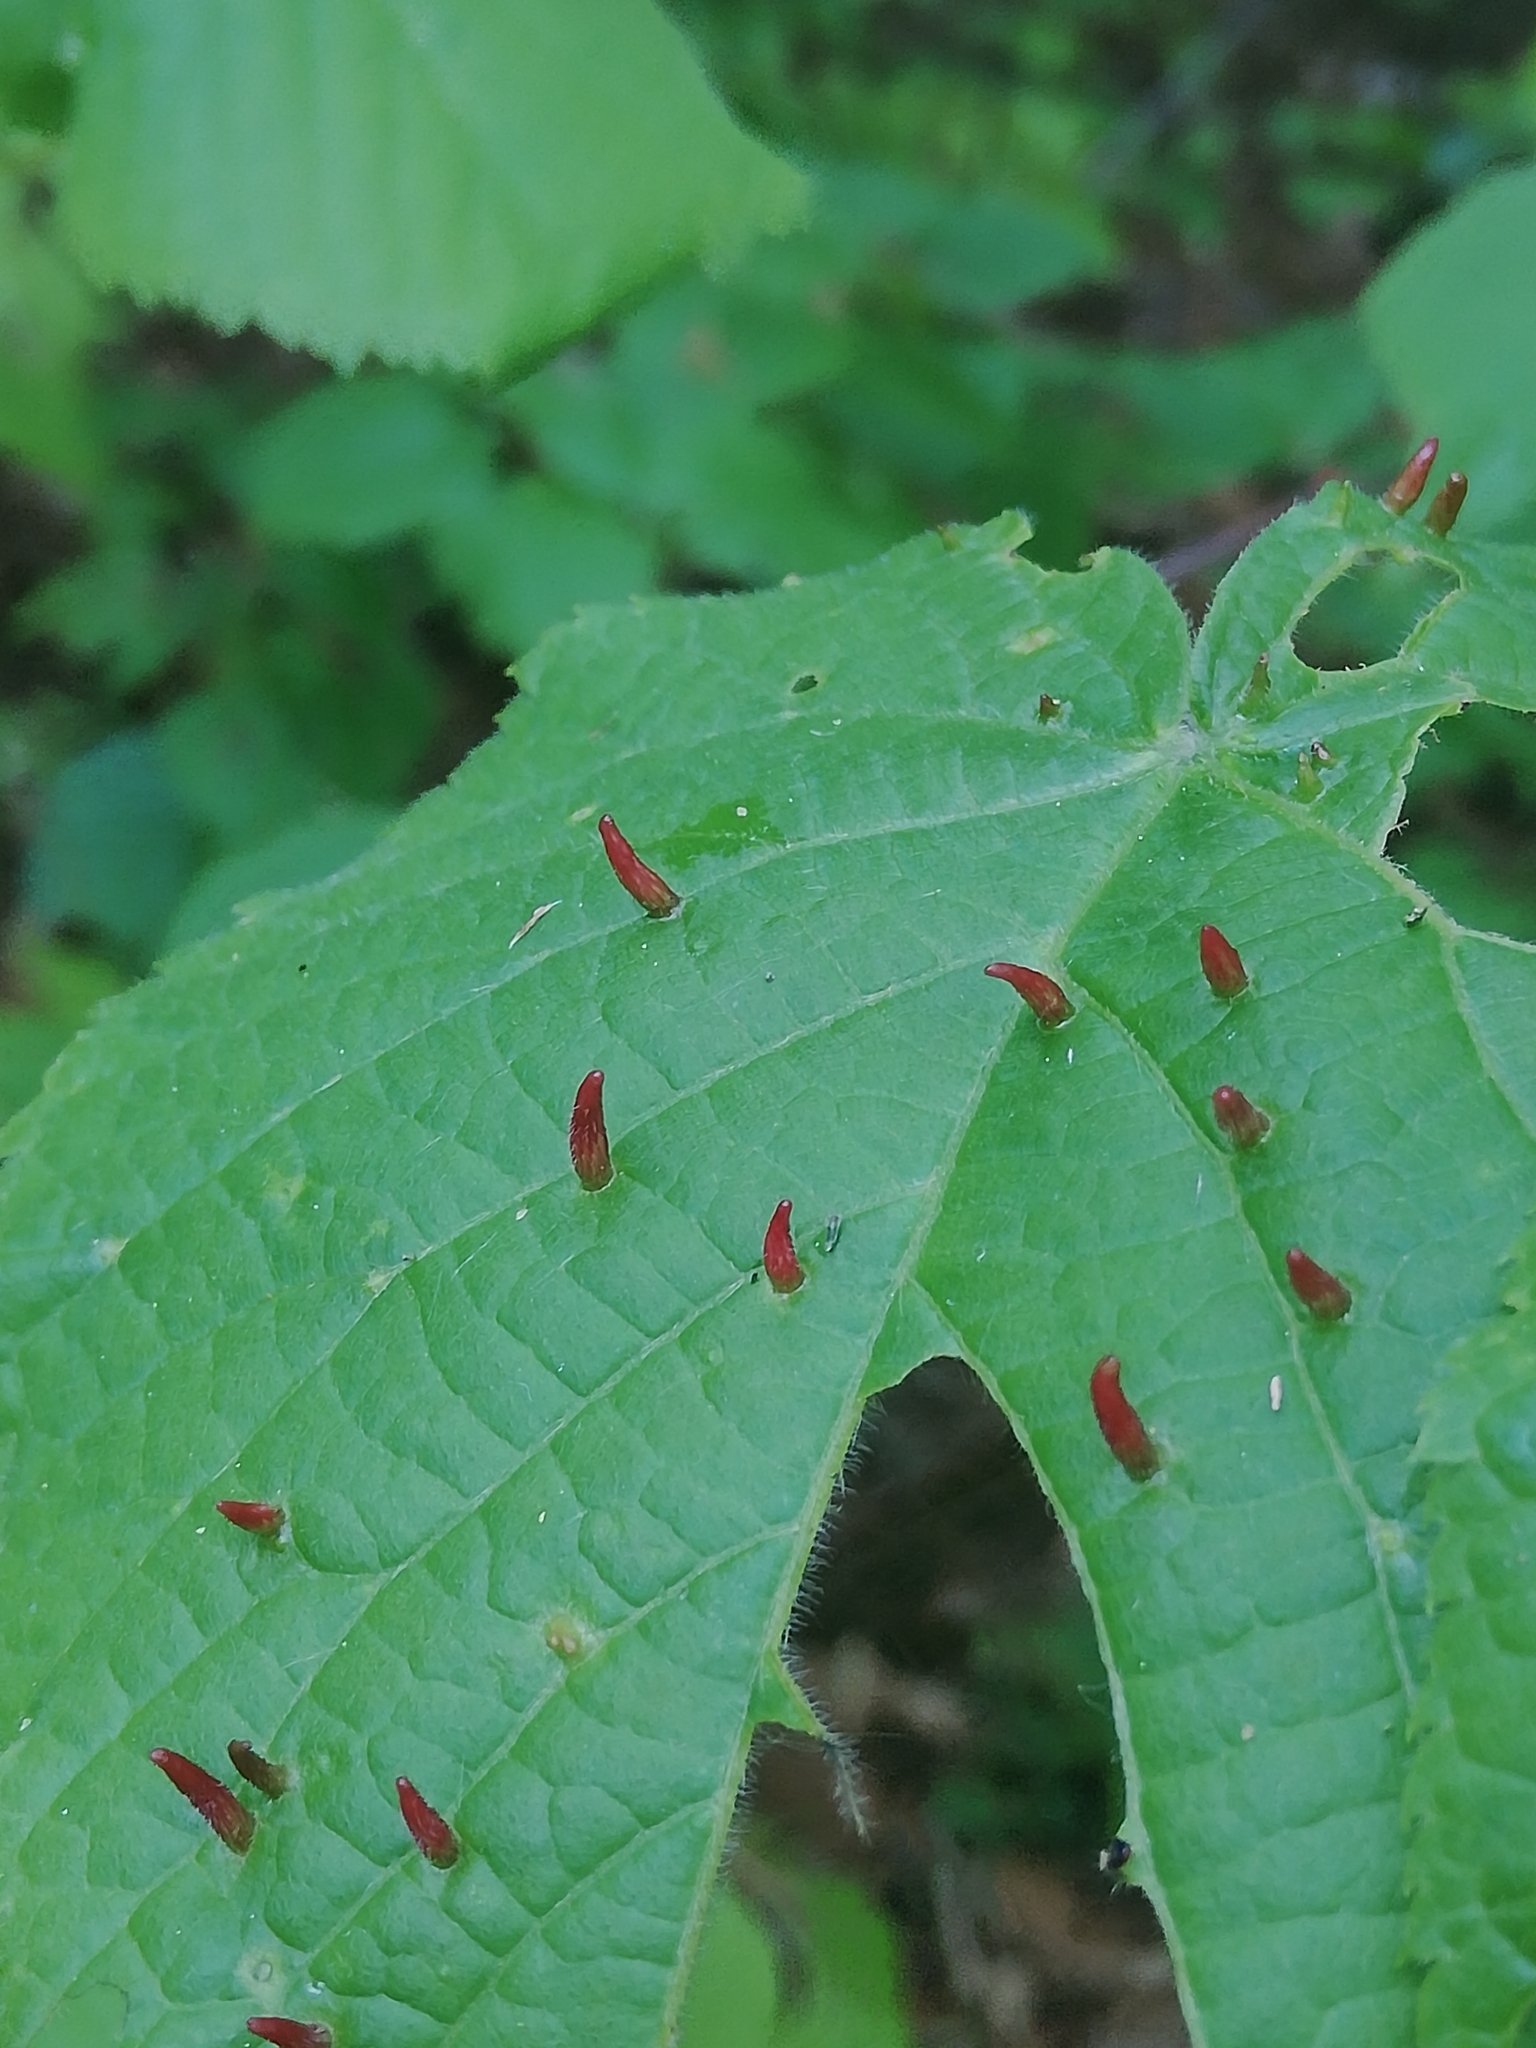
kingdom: Animalia
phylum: Arthropoda
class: Arachnida
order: Trombidiformes
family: Eriophyidae
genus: Eriophyes
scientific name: Eriophyes tiliae
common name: Red nail gall mite
